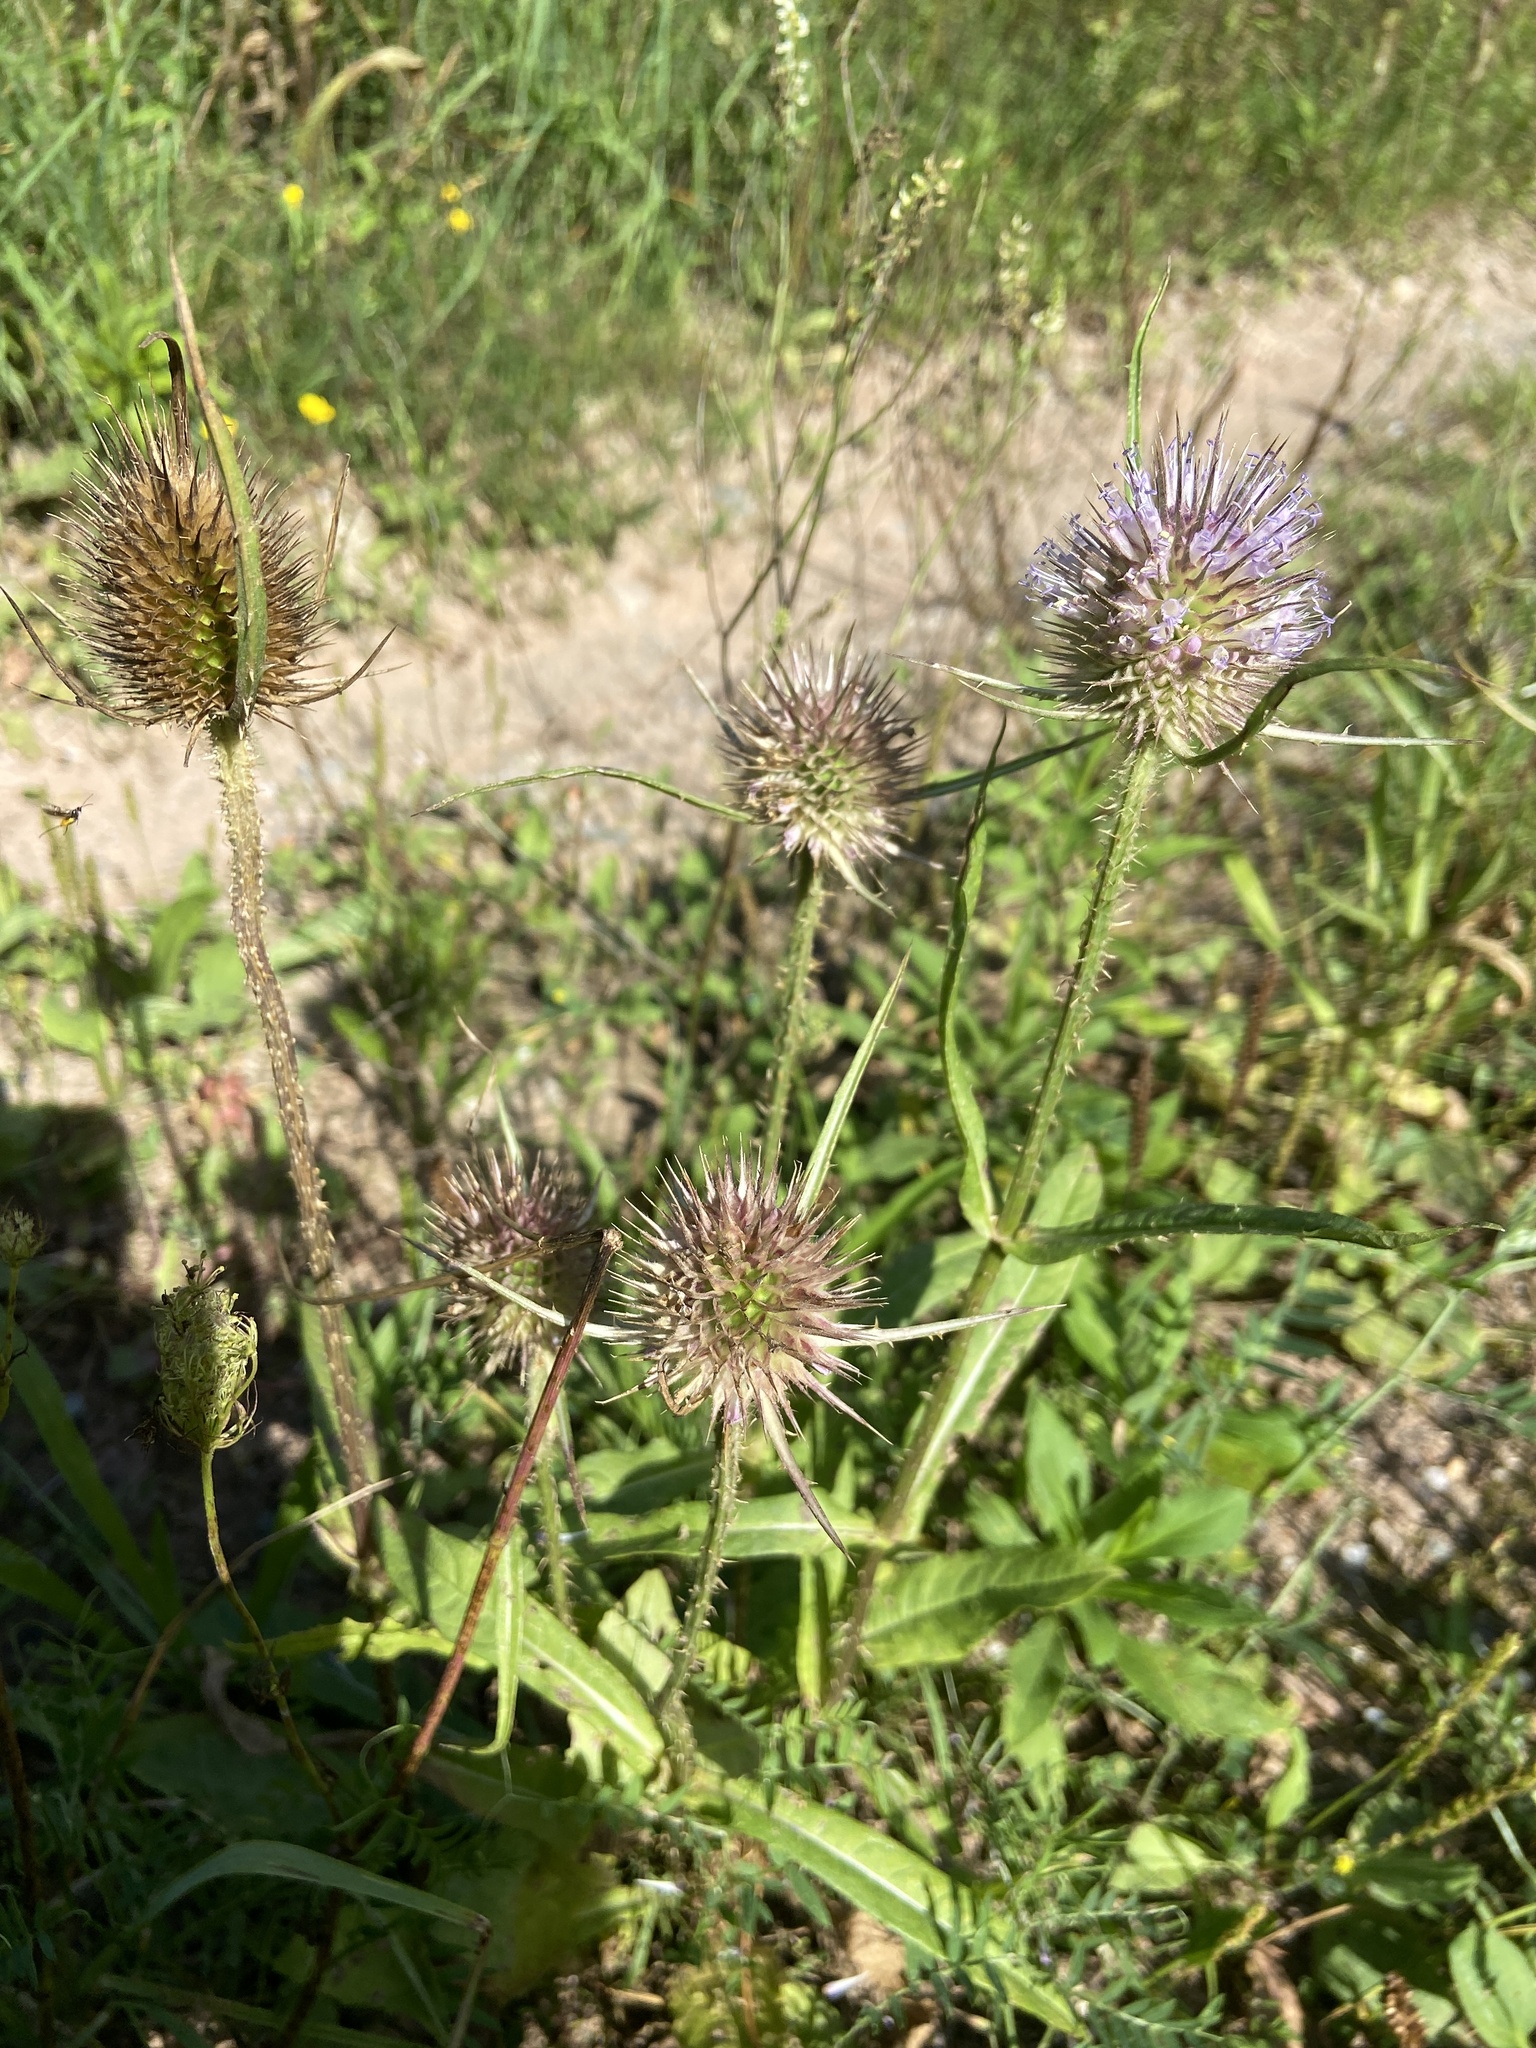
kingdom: Plantae
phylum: Tracheophyta
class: Magnoliopsida
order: Dipsacales
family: Caprifoliaceae
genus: Dipsacus
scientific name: Dipsacus fullonum
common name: Teasel
